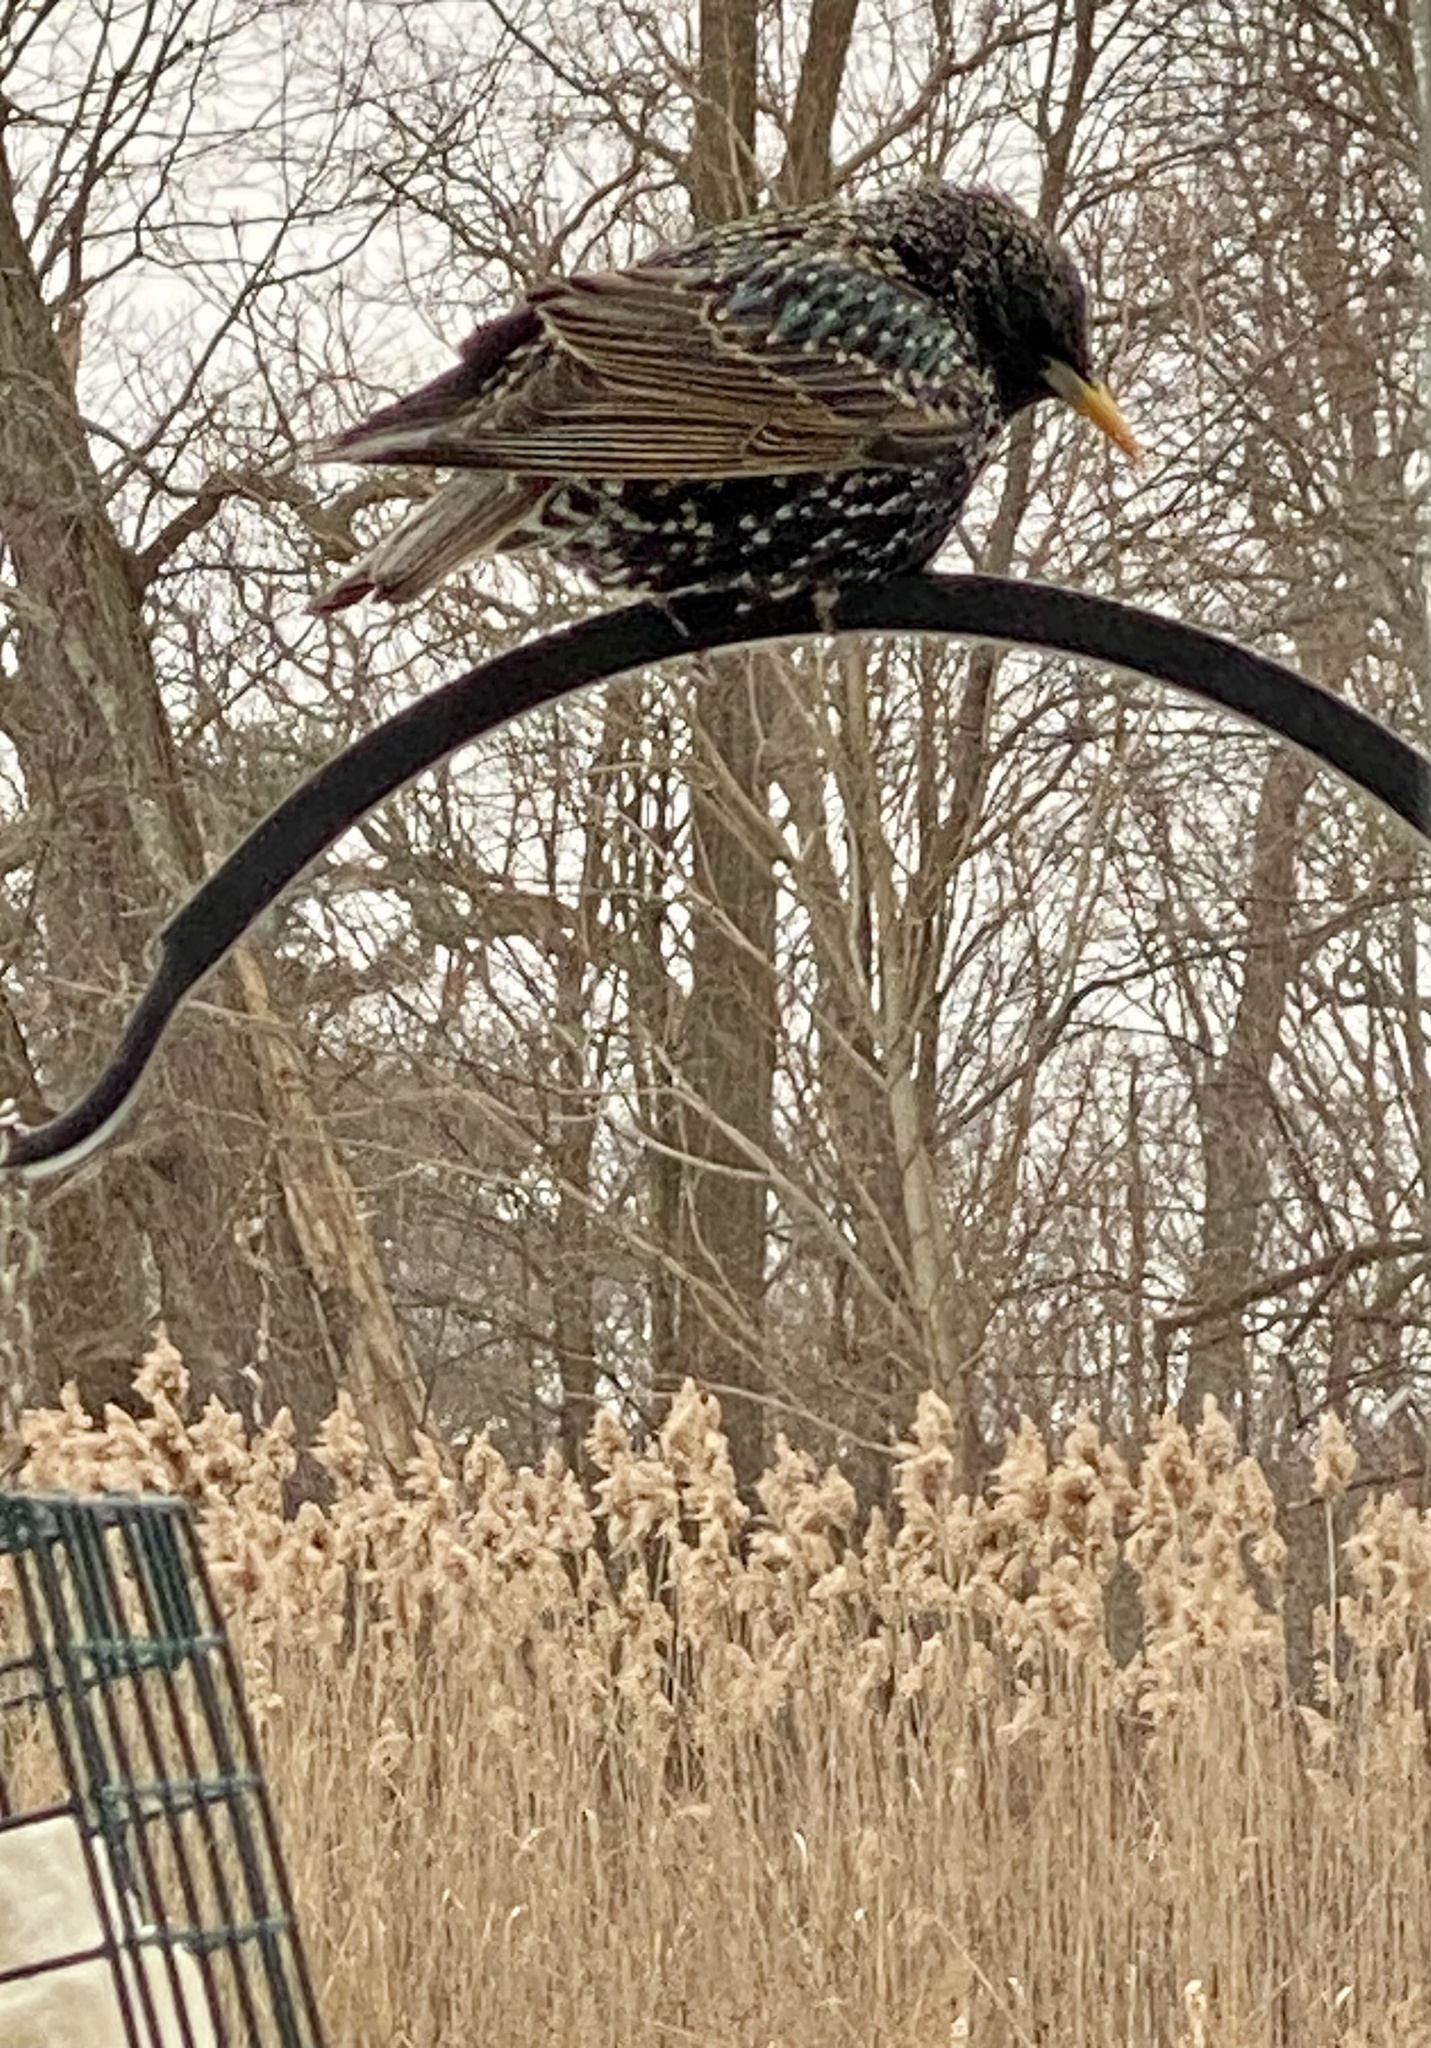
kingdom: Animalia
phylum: Chordata
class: Aves
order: Passeriformes
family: Sturnidae
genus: Sturnus
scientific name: Sturnus vulgaris
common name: Common starling
